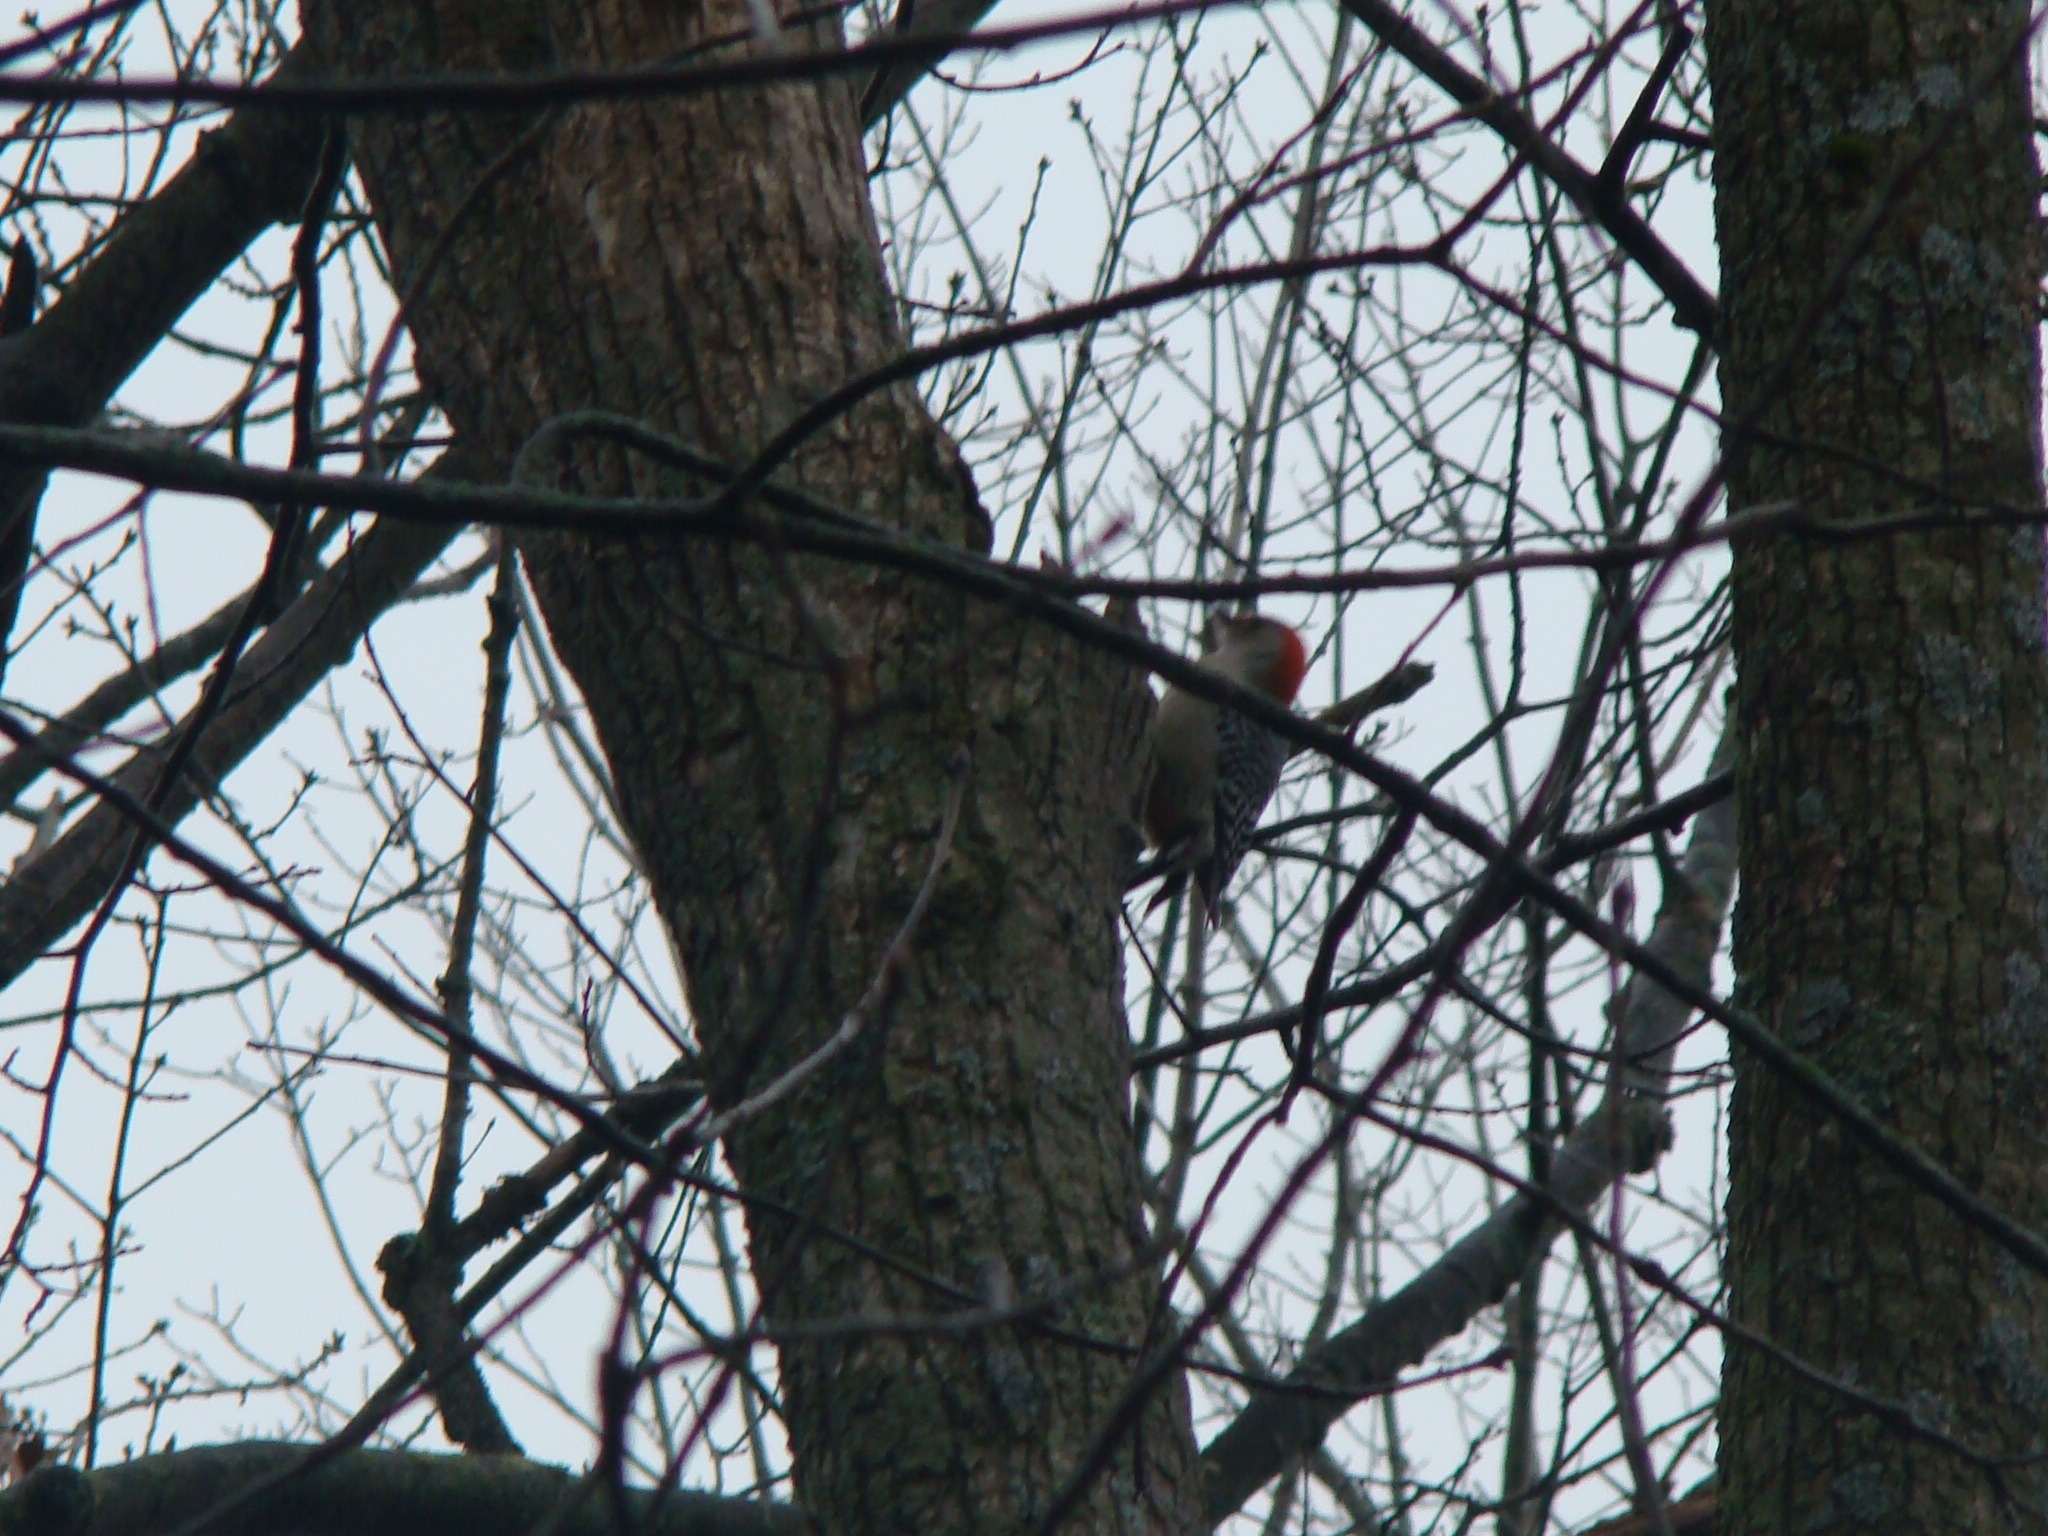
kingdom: Animalia
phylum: Chordata
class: Aves
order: Piciformes
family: Picidae
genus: Melanerpes
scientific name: Melanerpes carolinus
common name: Red-bellied woodpecker
